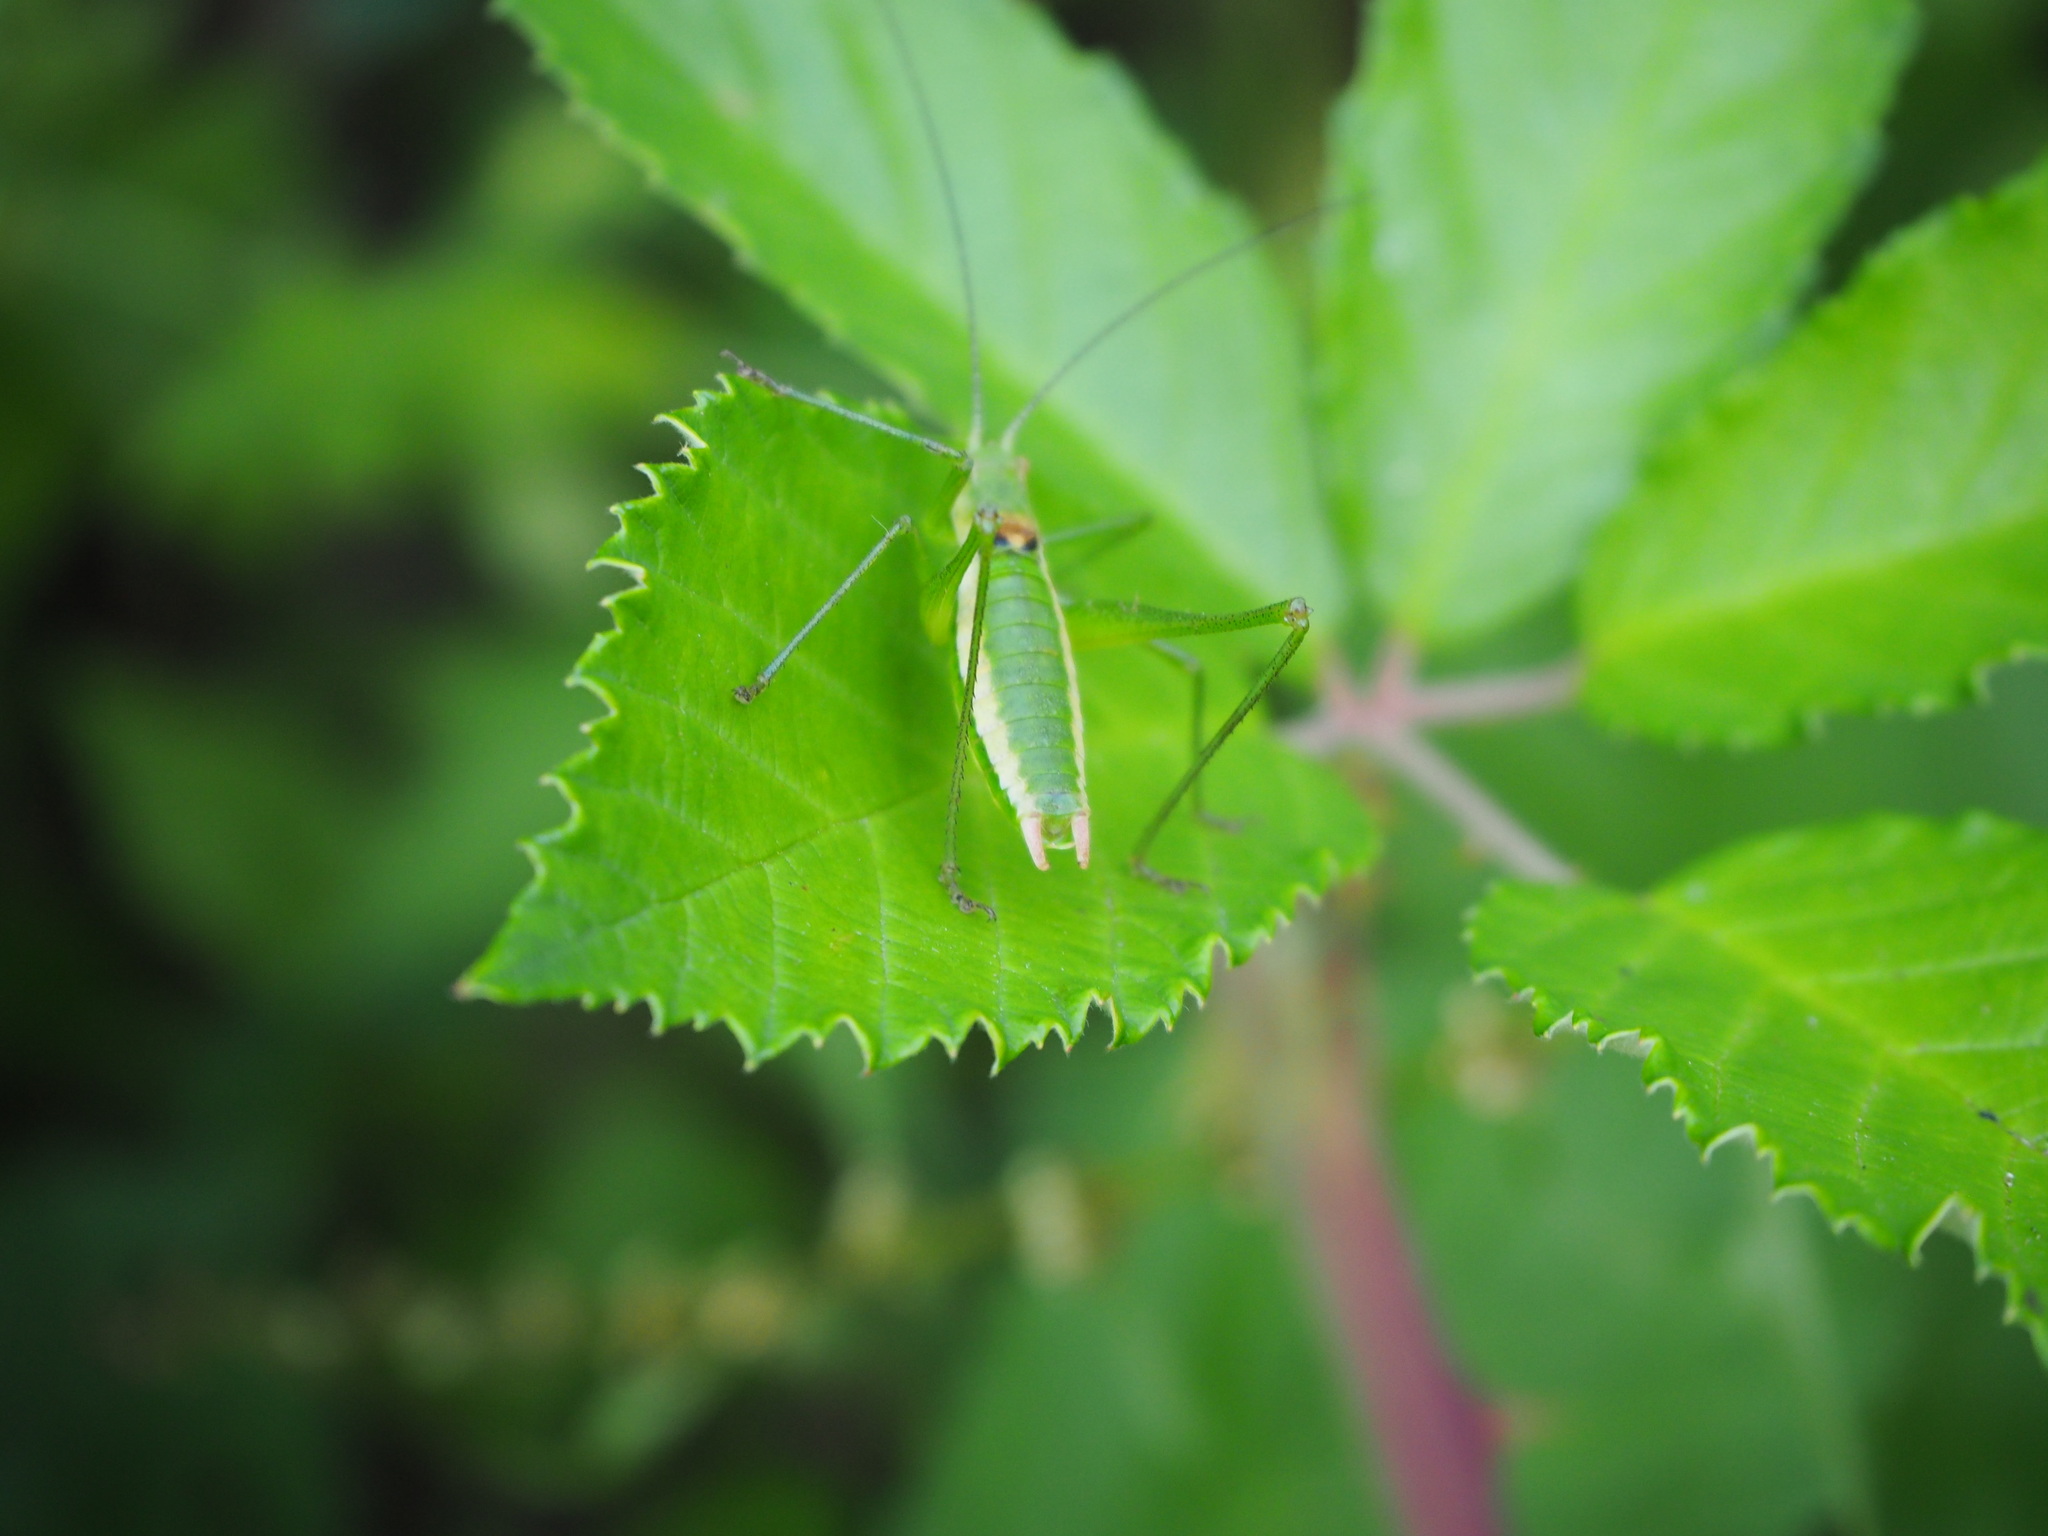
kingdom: Animalia
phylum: Arthropoda
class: Insecta
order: Orthoptera
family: Tettigoniidae
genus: Leptophyes
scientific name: Leptophyes boscii
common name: Balkan speckled bush-cricket
